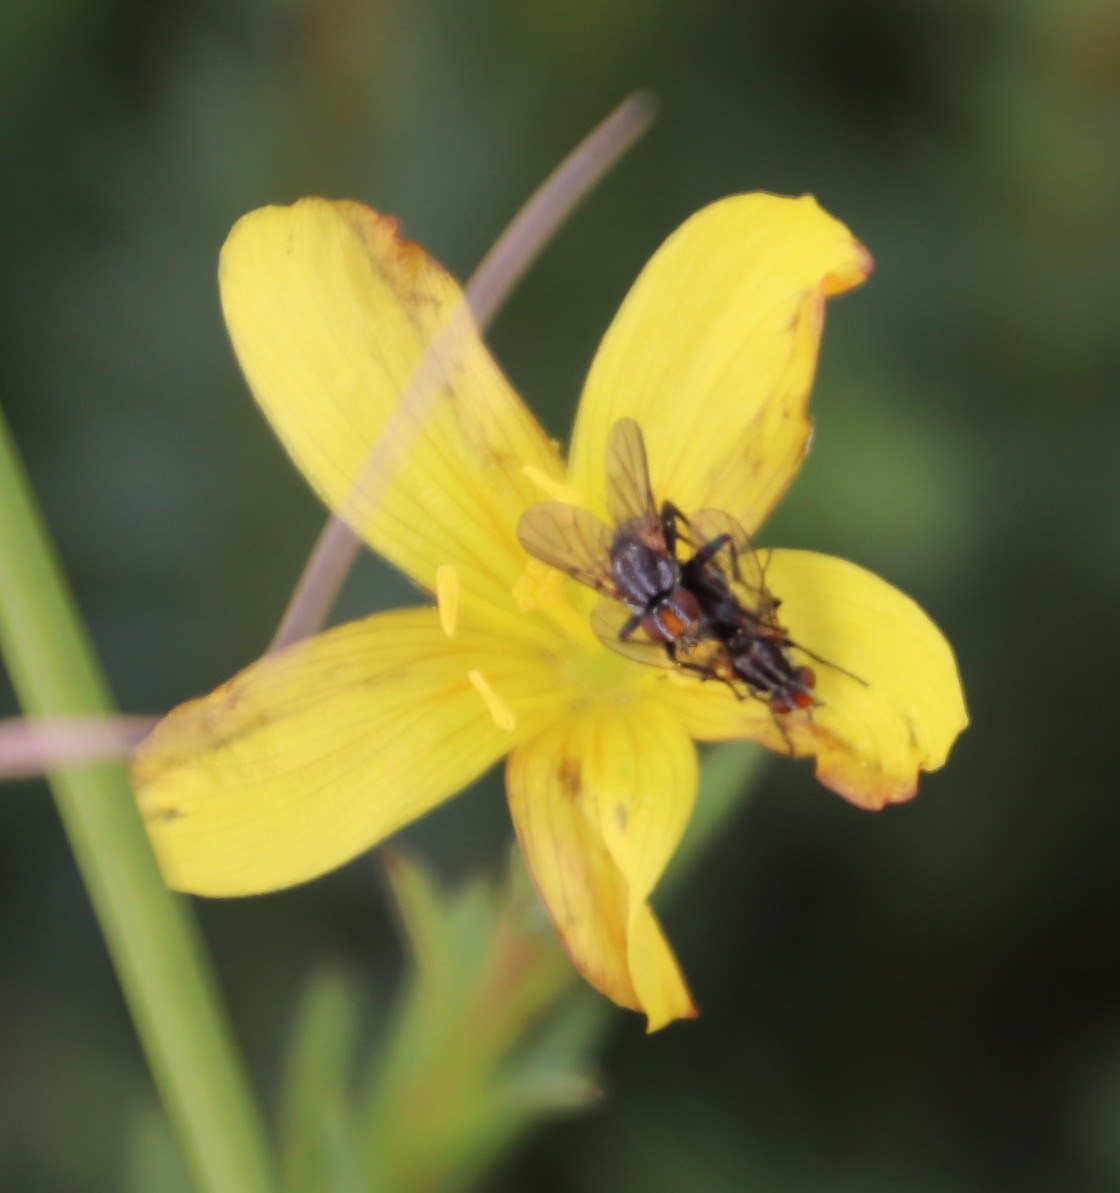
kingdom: Plantae
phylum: Tracheophyta
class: Magnoliopsida
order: Malpighiales
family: Linaceae
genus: Linum
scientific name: Linum africanum
